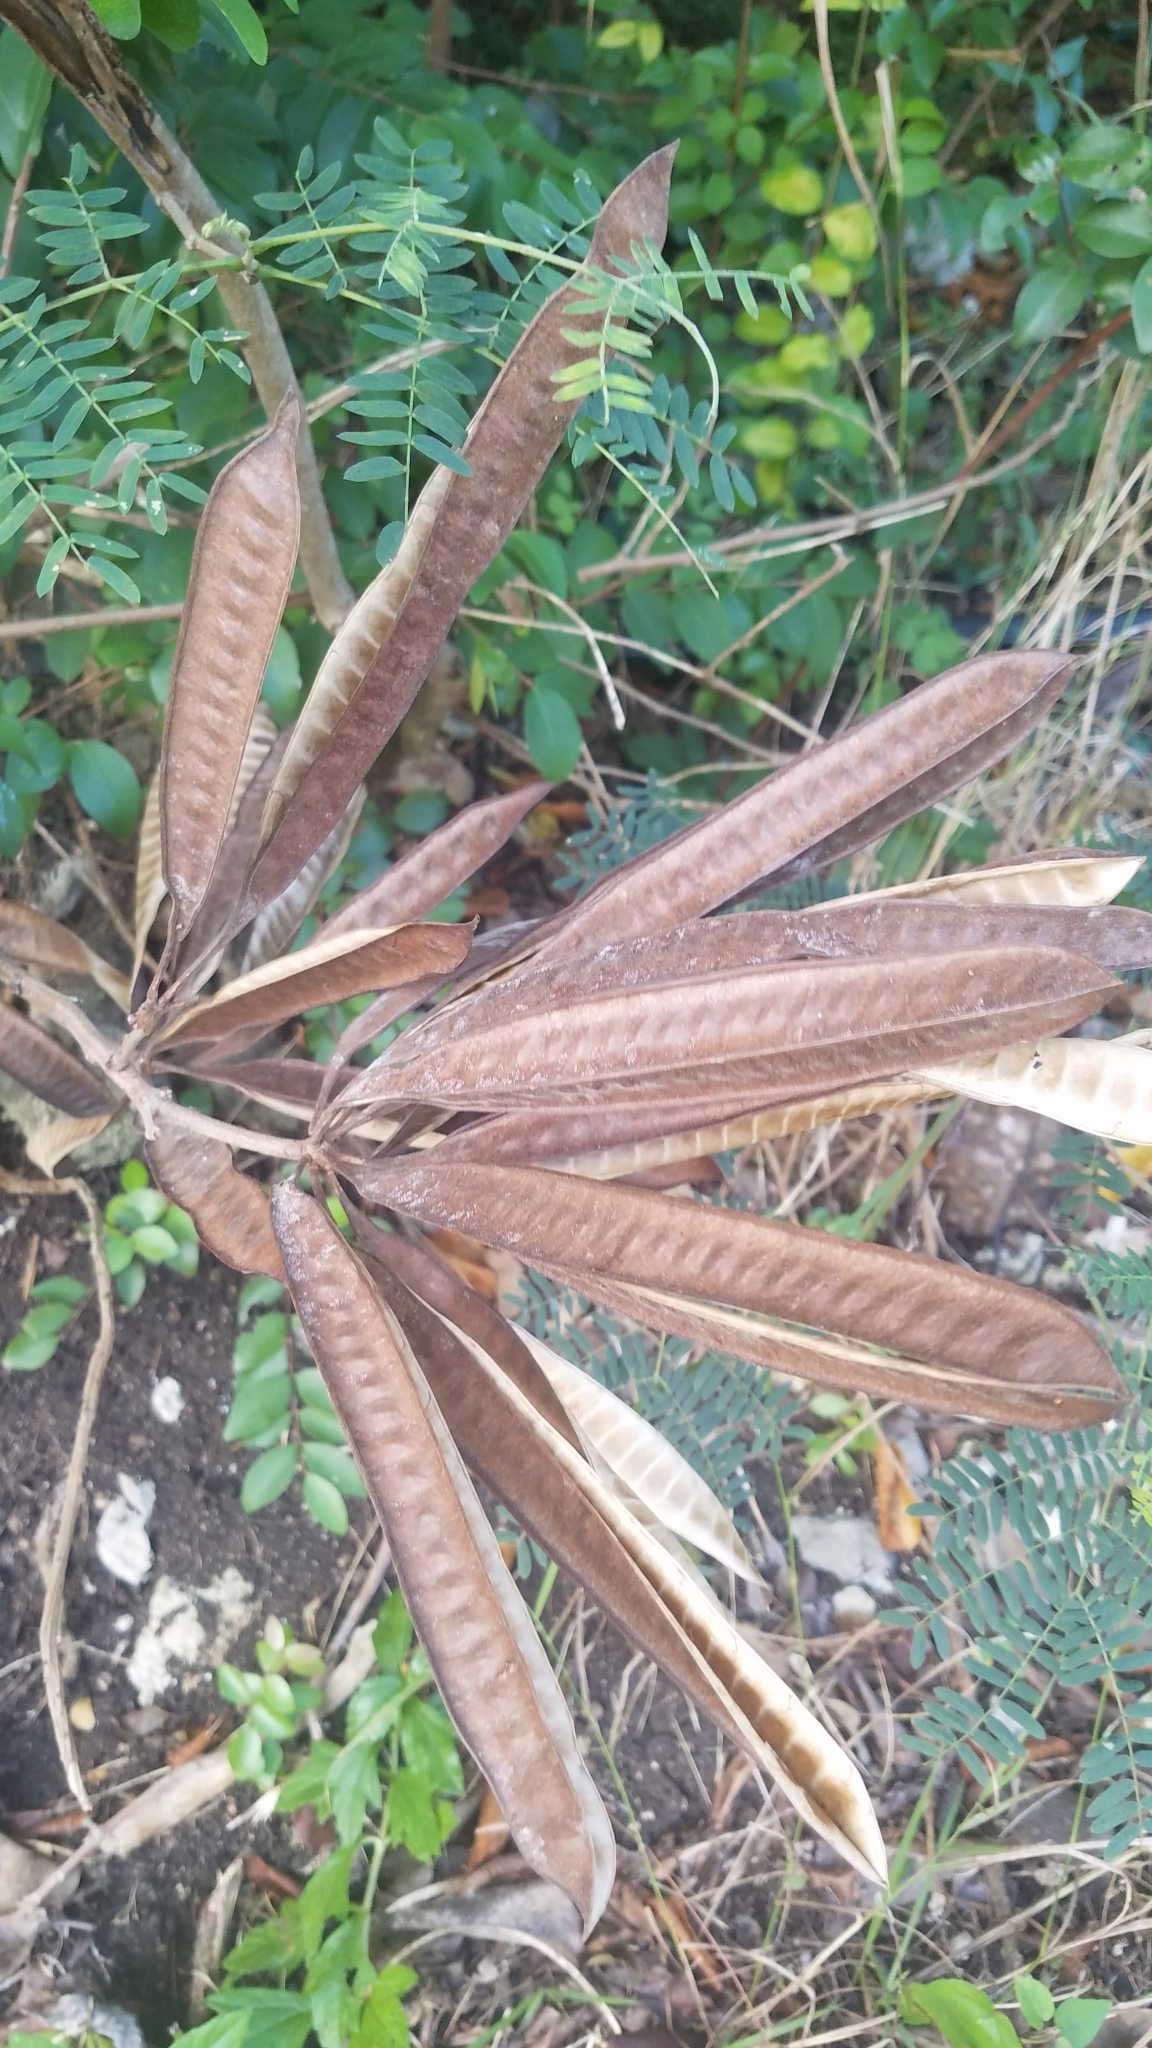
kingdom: Plantae
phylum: Tracheophyta
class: Magnoliopsida
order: Fabales
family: Fabaceae
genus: Leucaena
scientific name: Leucaena leucocephala
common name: White leadtree
